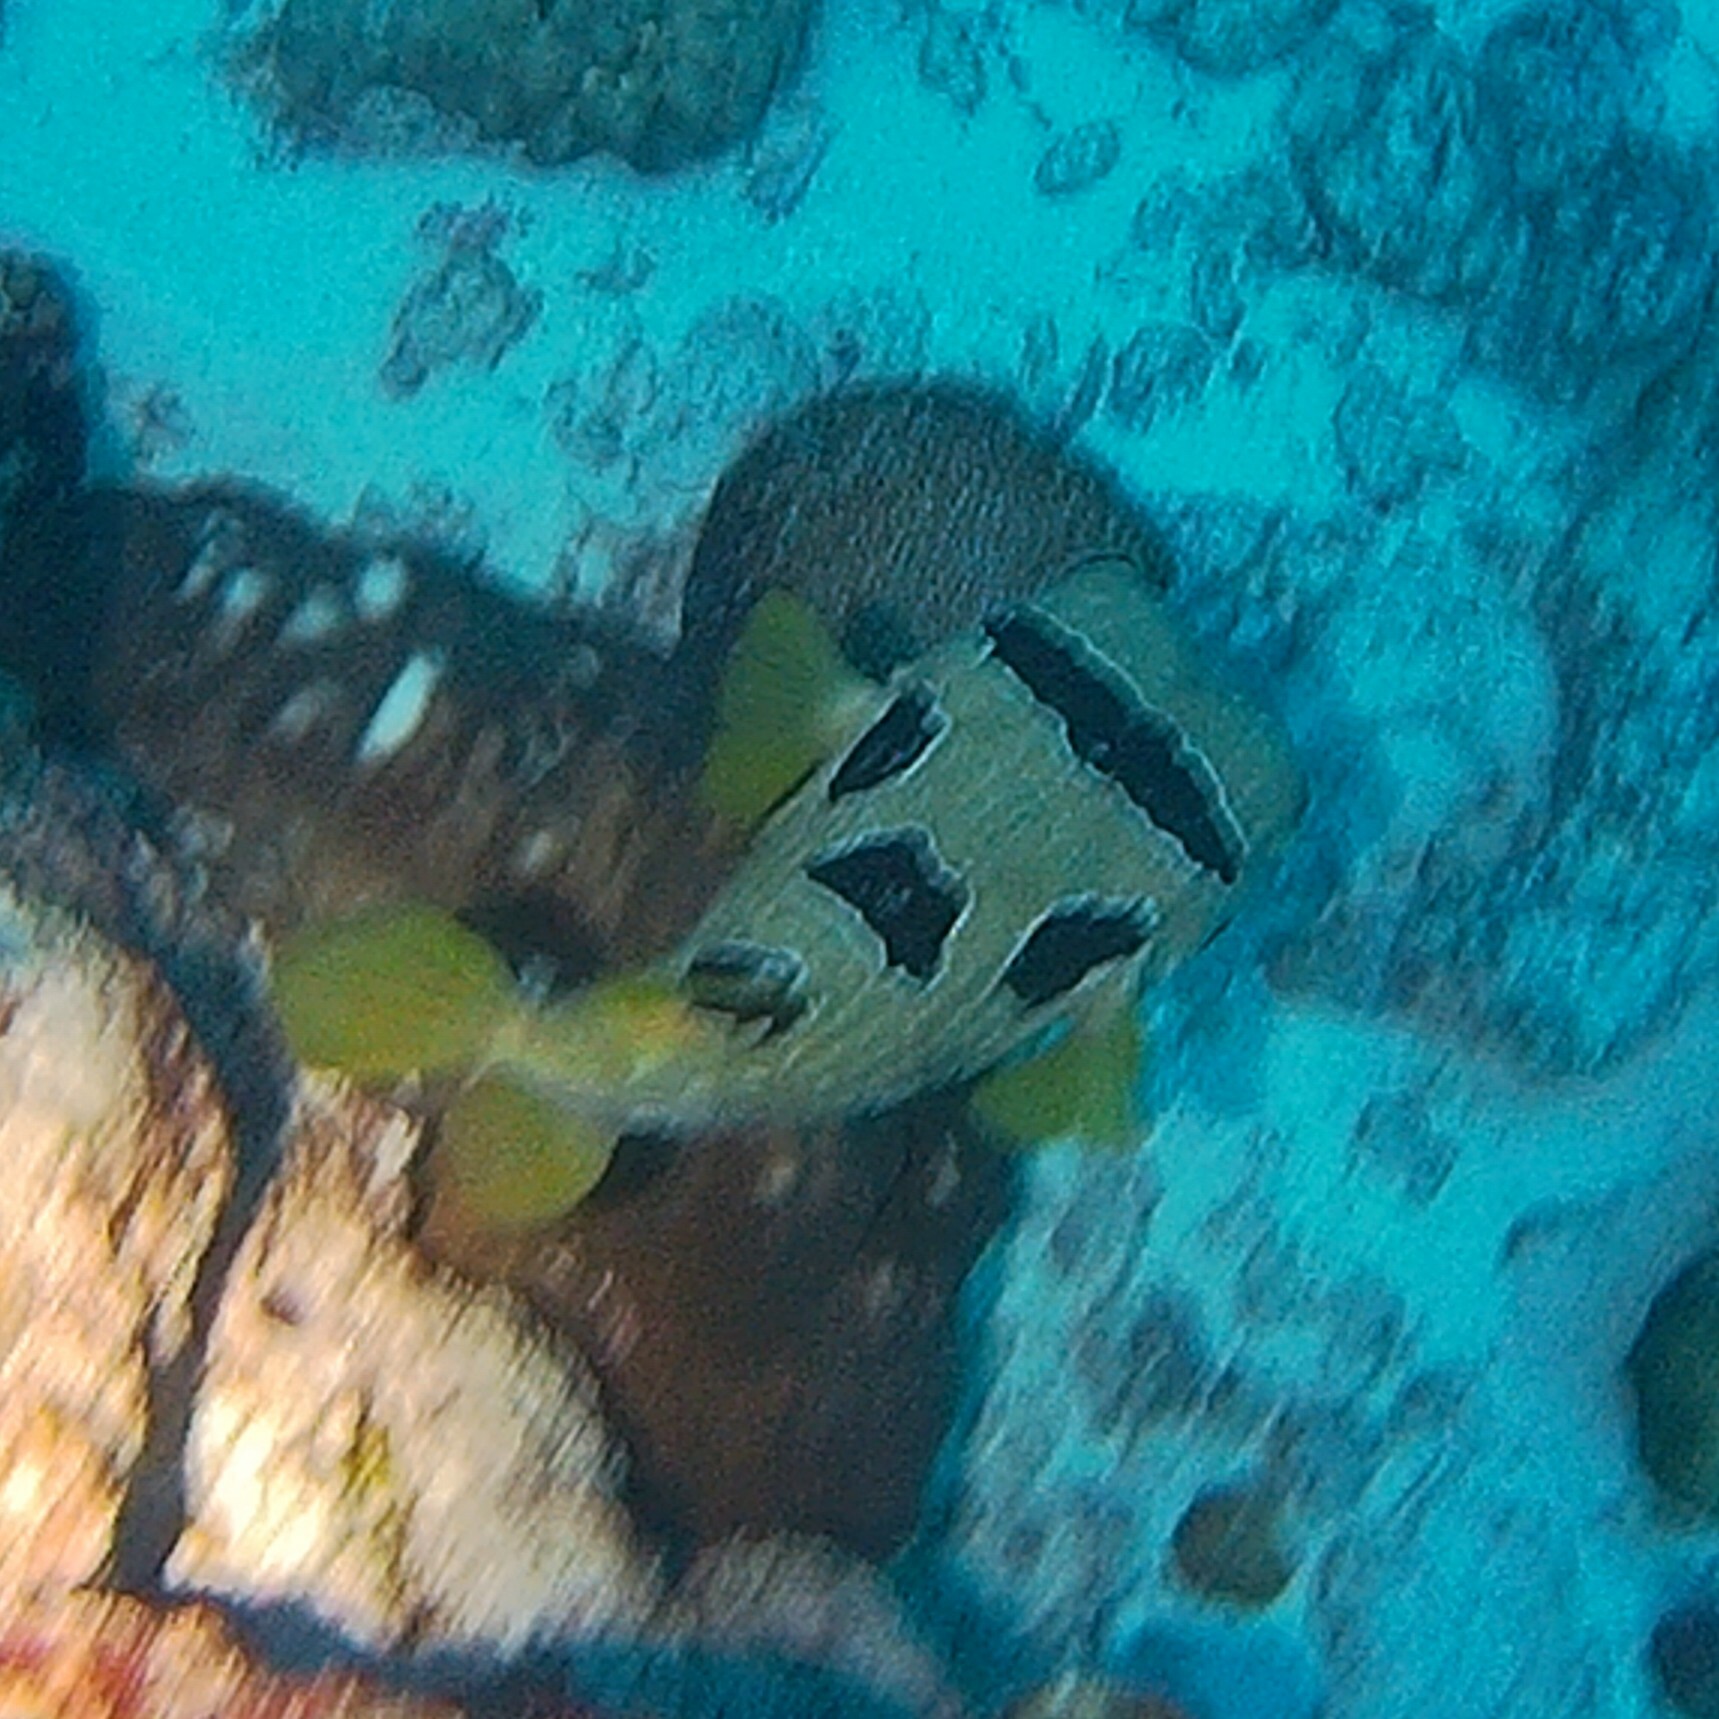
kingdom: Animalia
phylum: Chordata
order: Tetraodontiformes
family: Diodontidae
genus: Diodon
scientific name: Diodon liturosus
